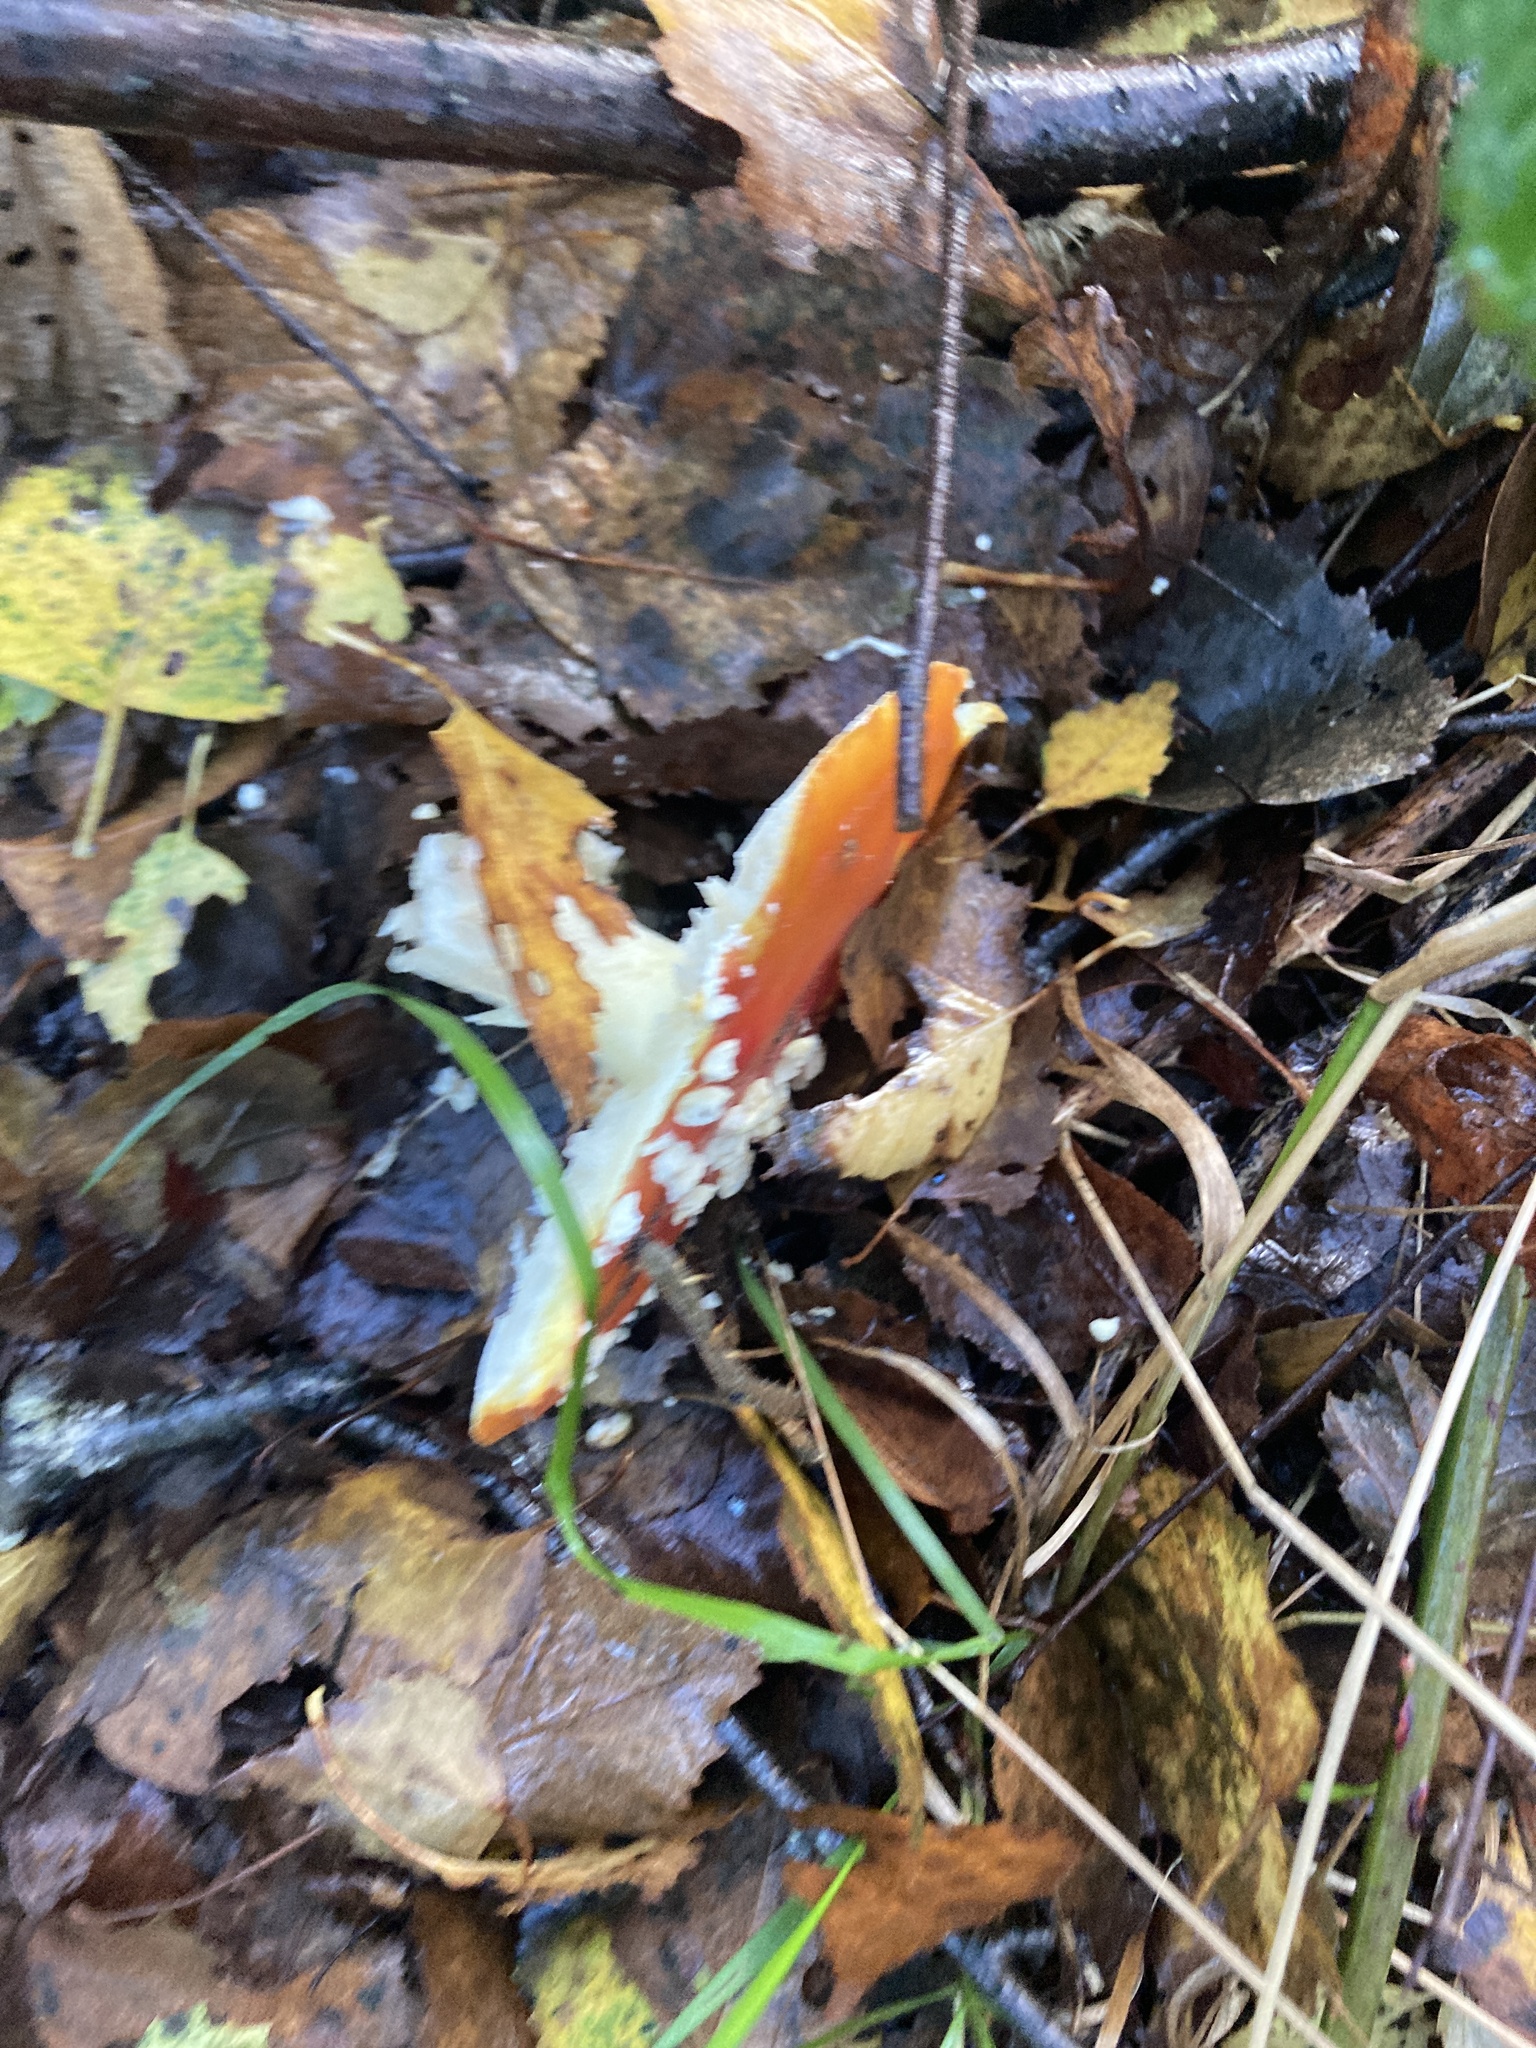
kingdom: Fungi
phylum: Basidiomycota
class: Agaricomycetes
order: Agaricales
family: Amanitaceae
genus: Amanita
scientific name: Amanita muscaria
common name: Fly agaric
